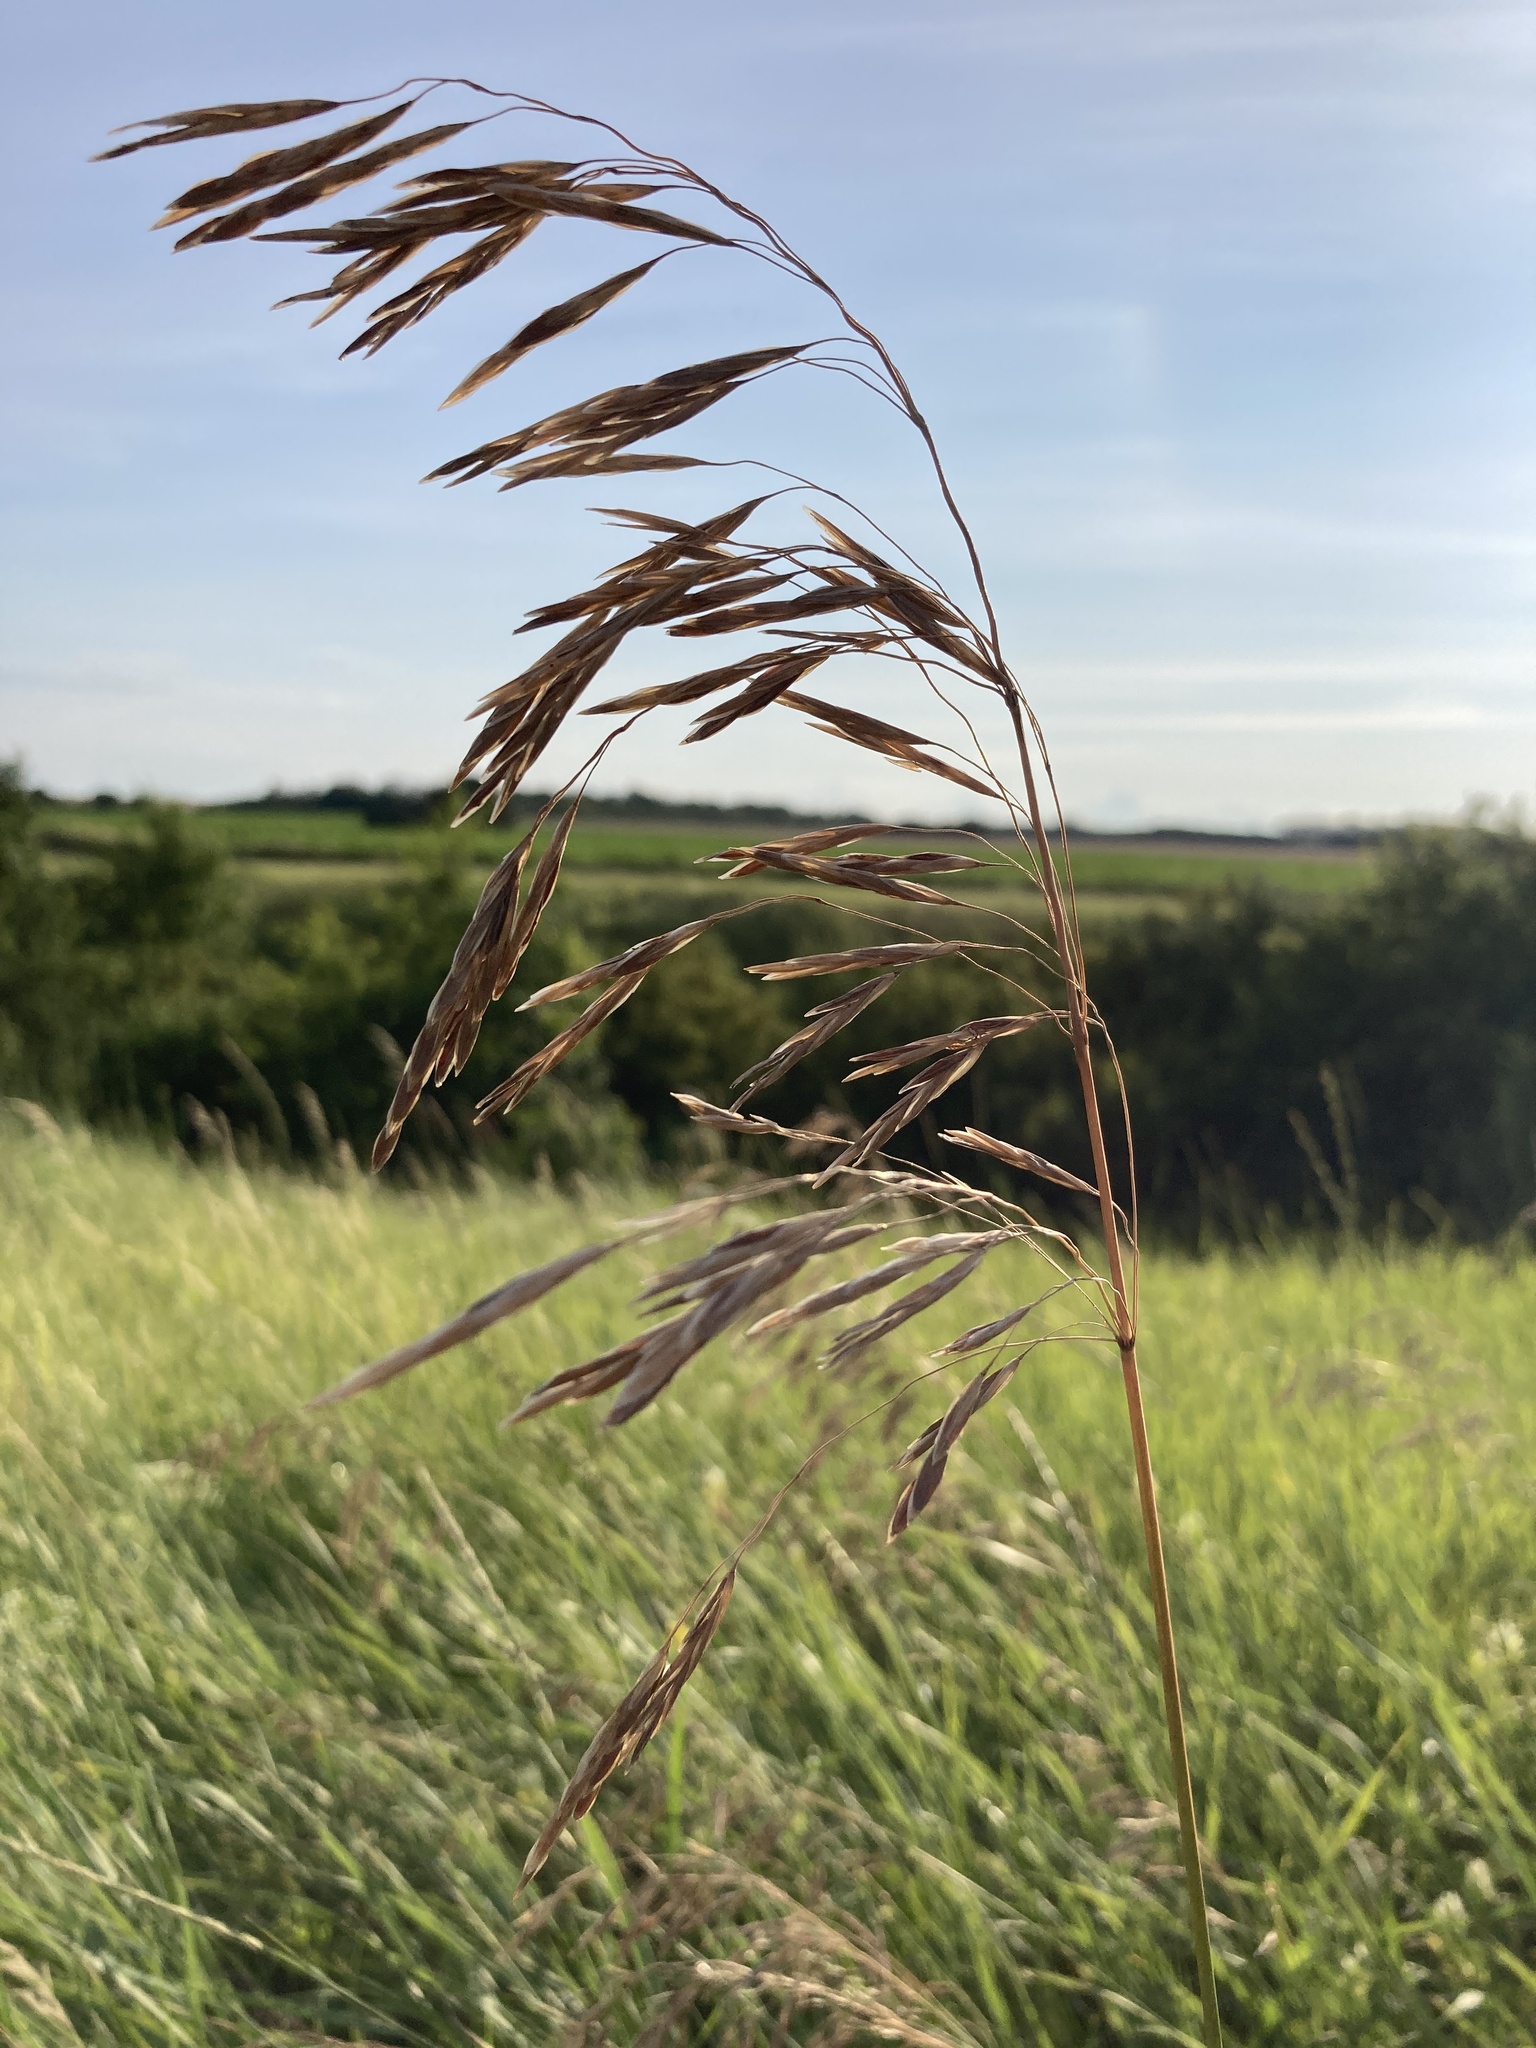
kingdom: Plantae
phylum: Tracheophyta
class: Liliopsida
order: Poales
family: Poaceae
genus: Bromus
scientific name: Bromus inermis
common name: Smooth brome
